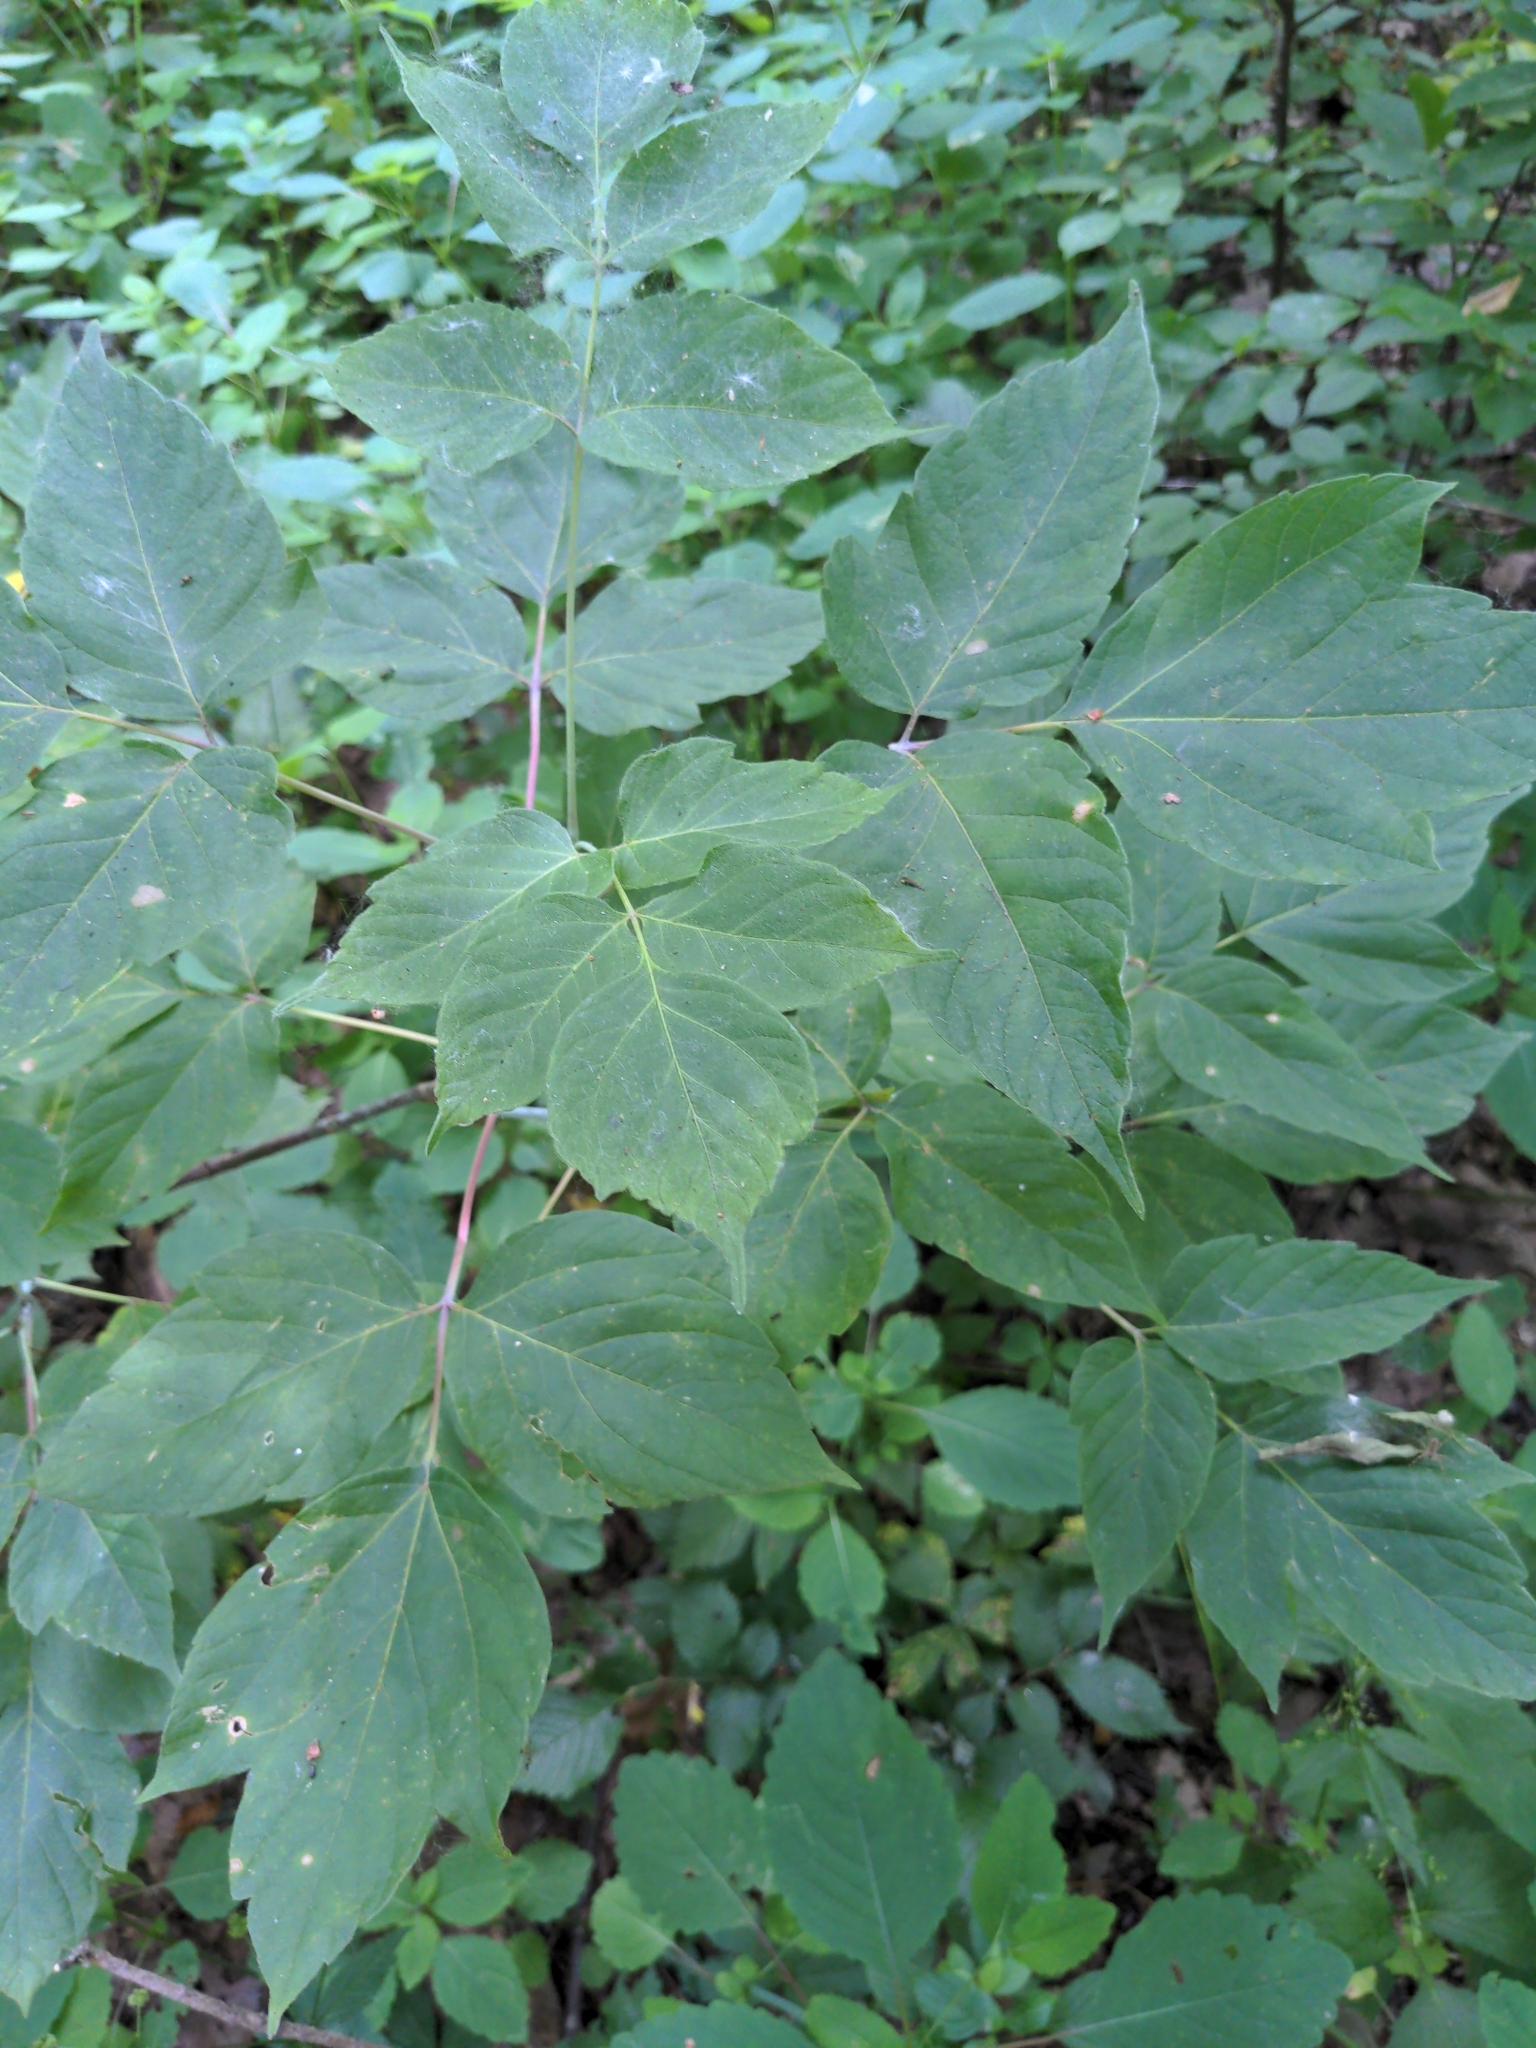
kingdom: Plantae
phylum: Tracheophyta
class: Magnoliopsida
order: Sapindales
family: Sapindaceae
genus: Acer
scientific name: Acer negundo
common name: Ashleaf maple
